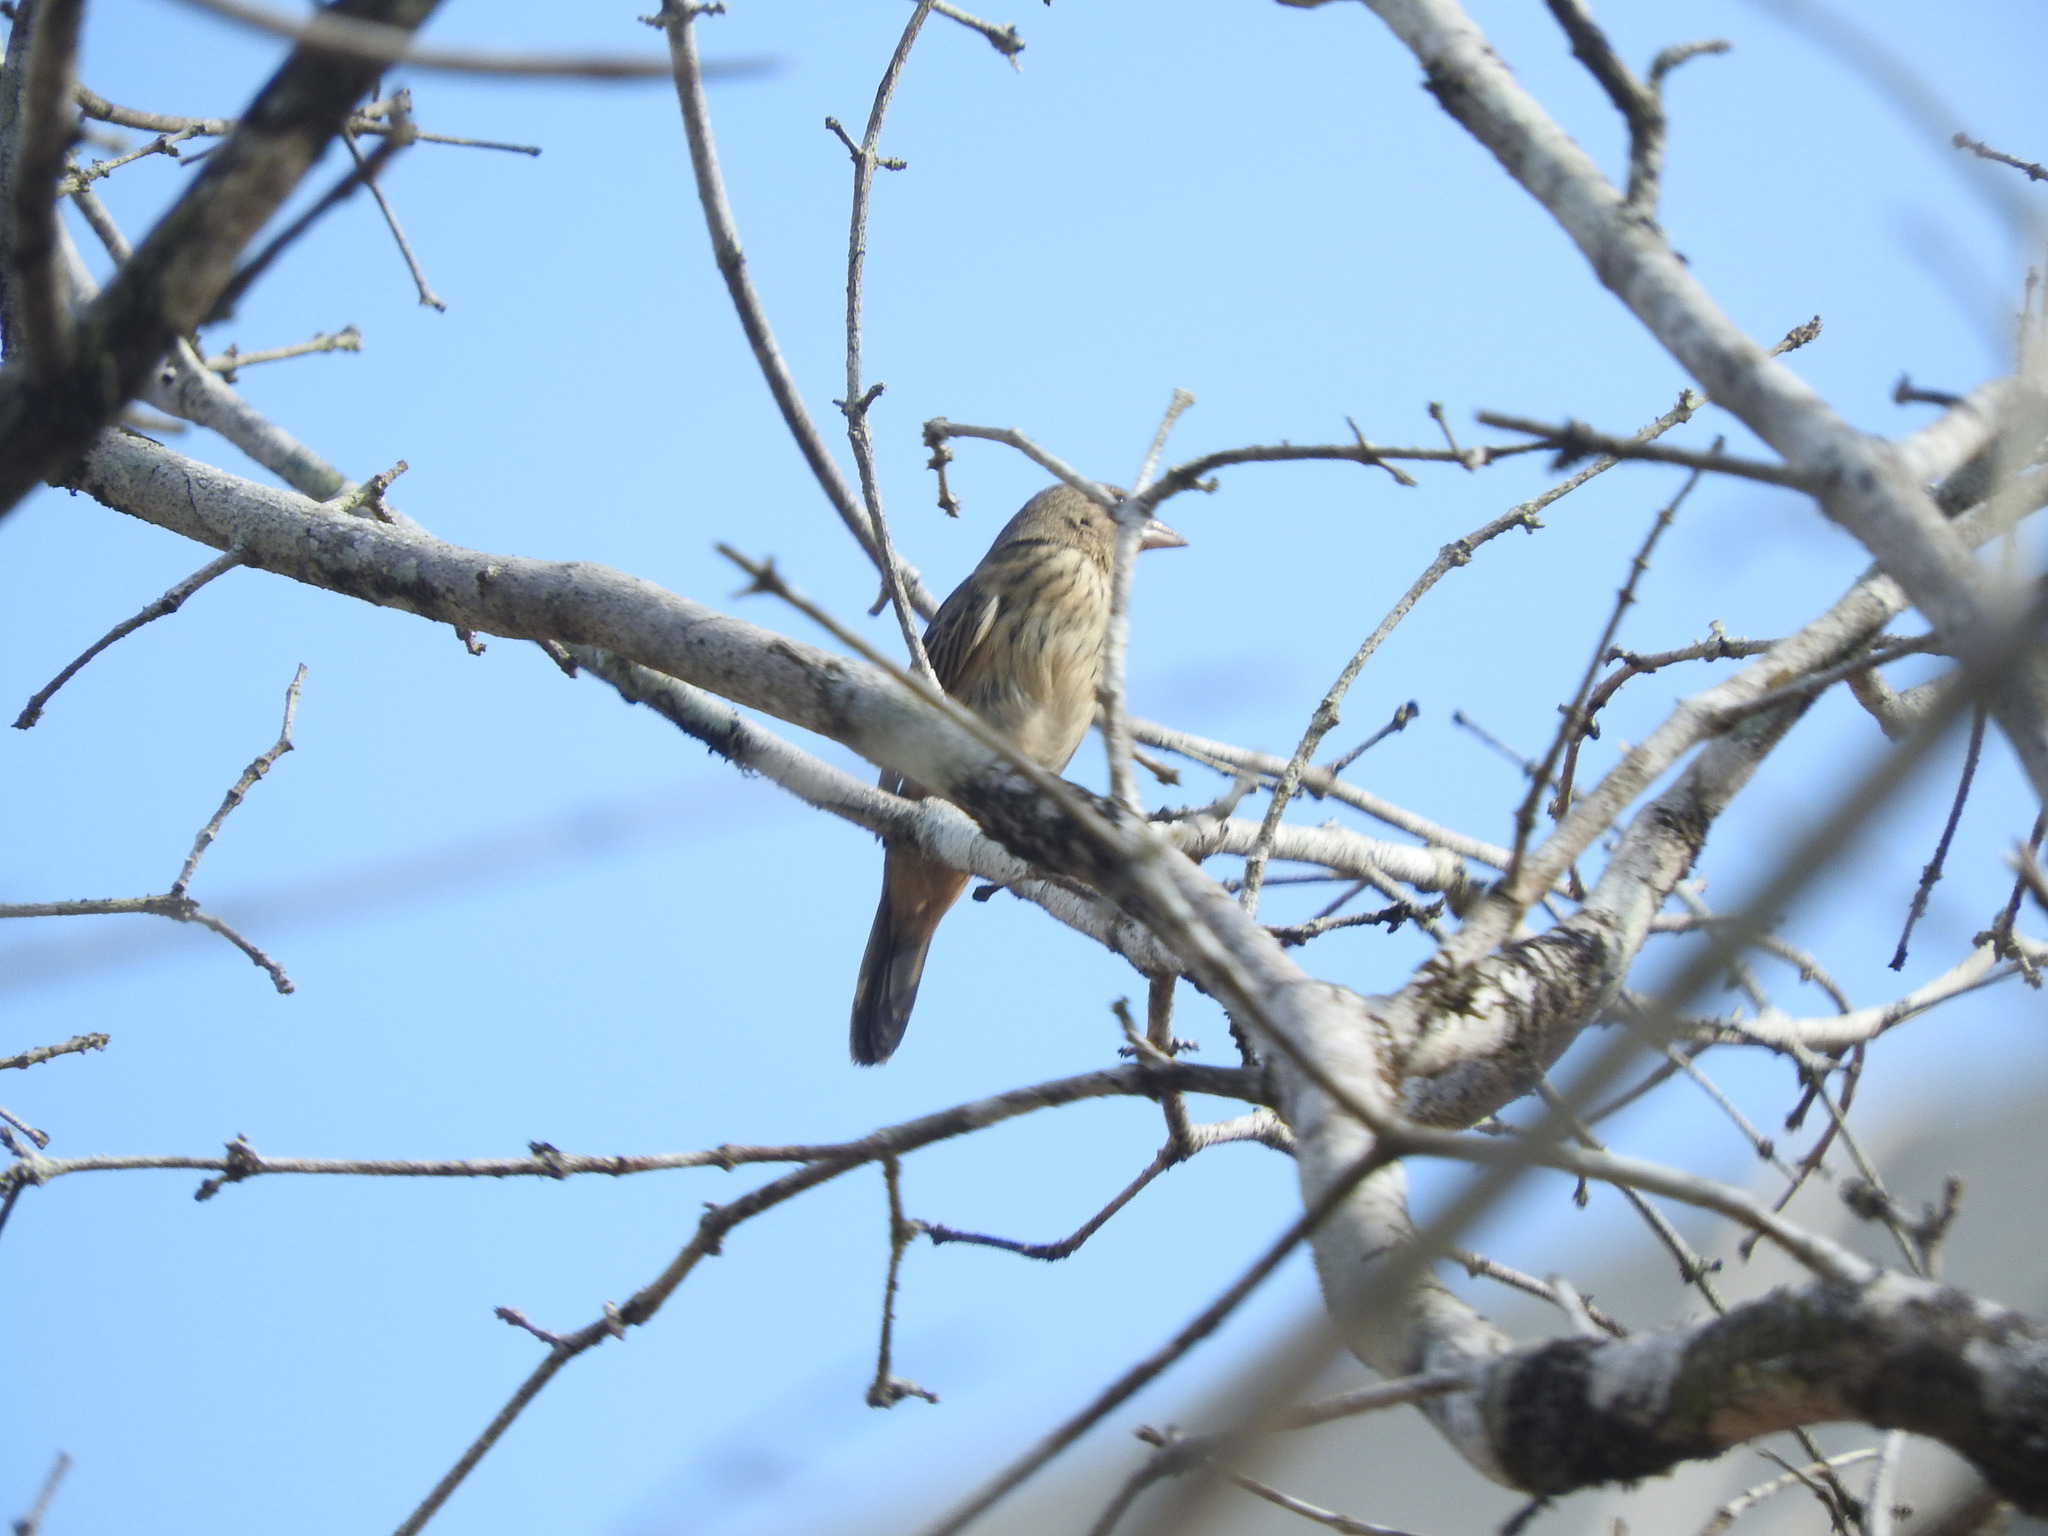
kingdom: Animalia
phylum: Chordata
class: Aves
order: Passeriformes
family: Thraupidae
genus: Volatinia
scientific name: Volatinia jacarina
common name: Blue-black grassquit
